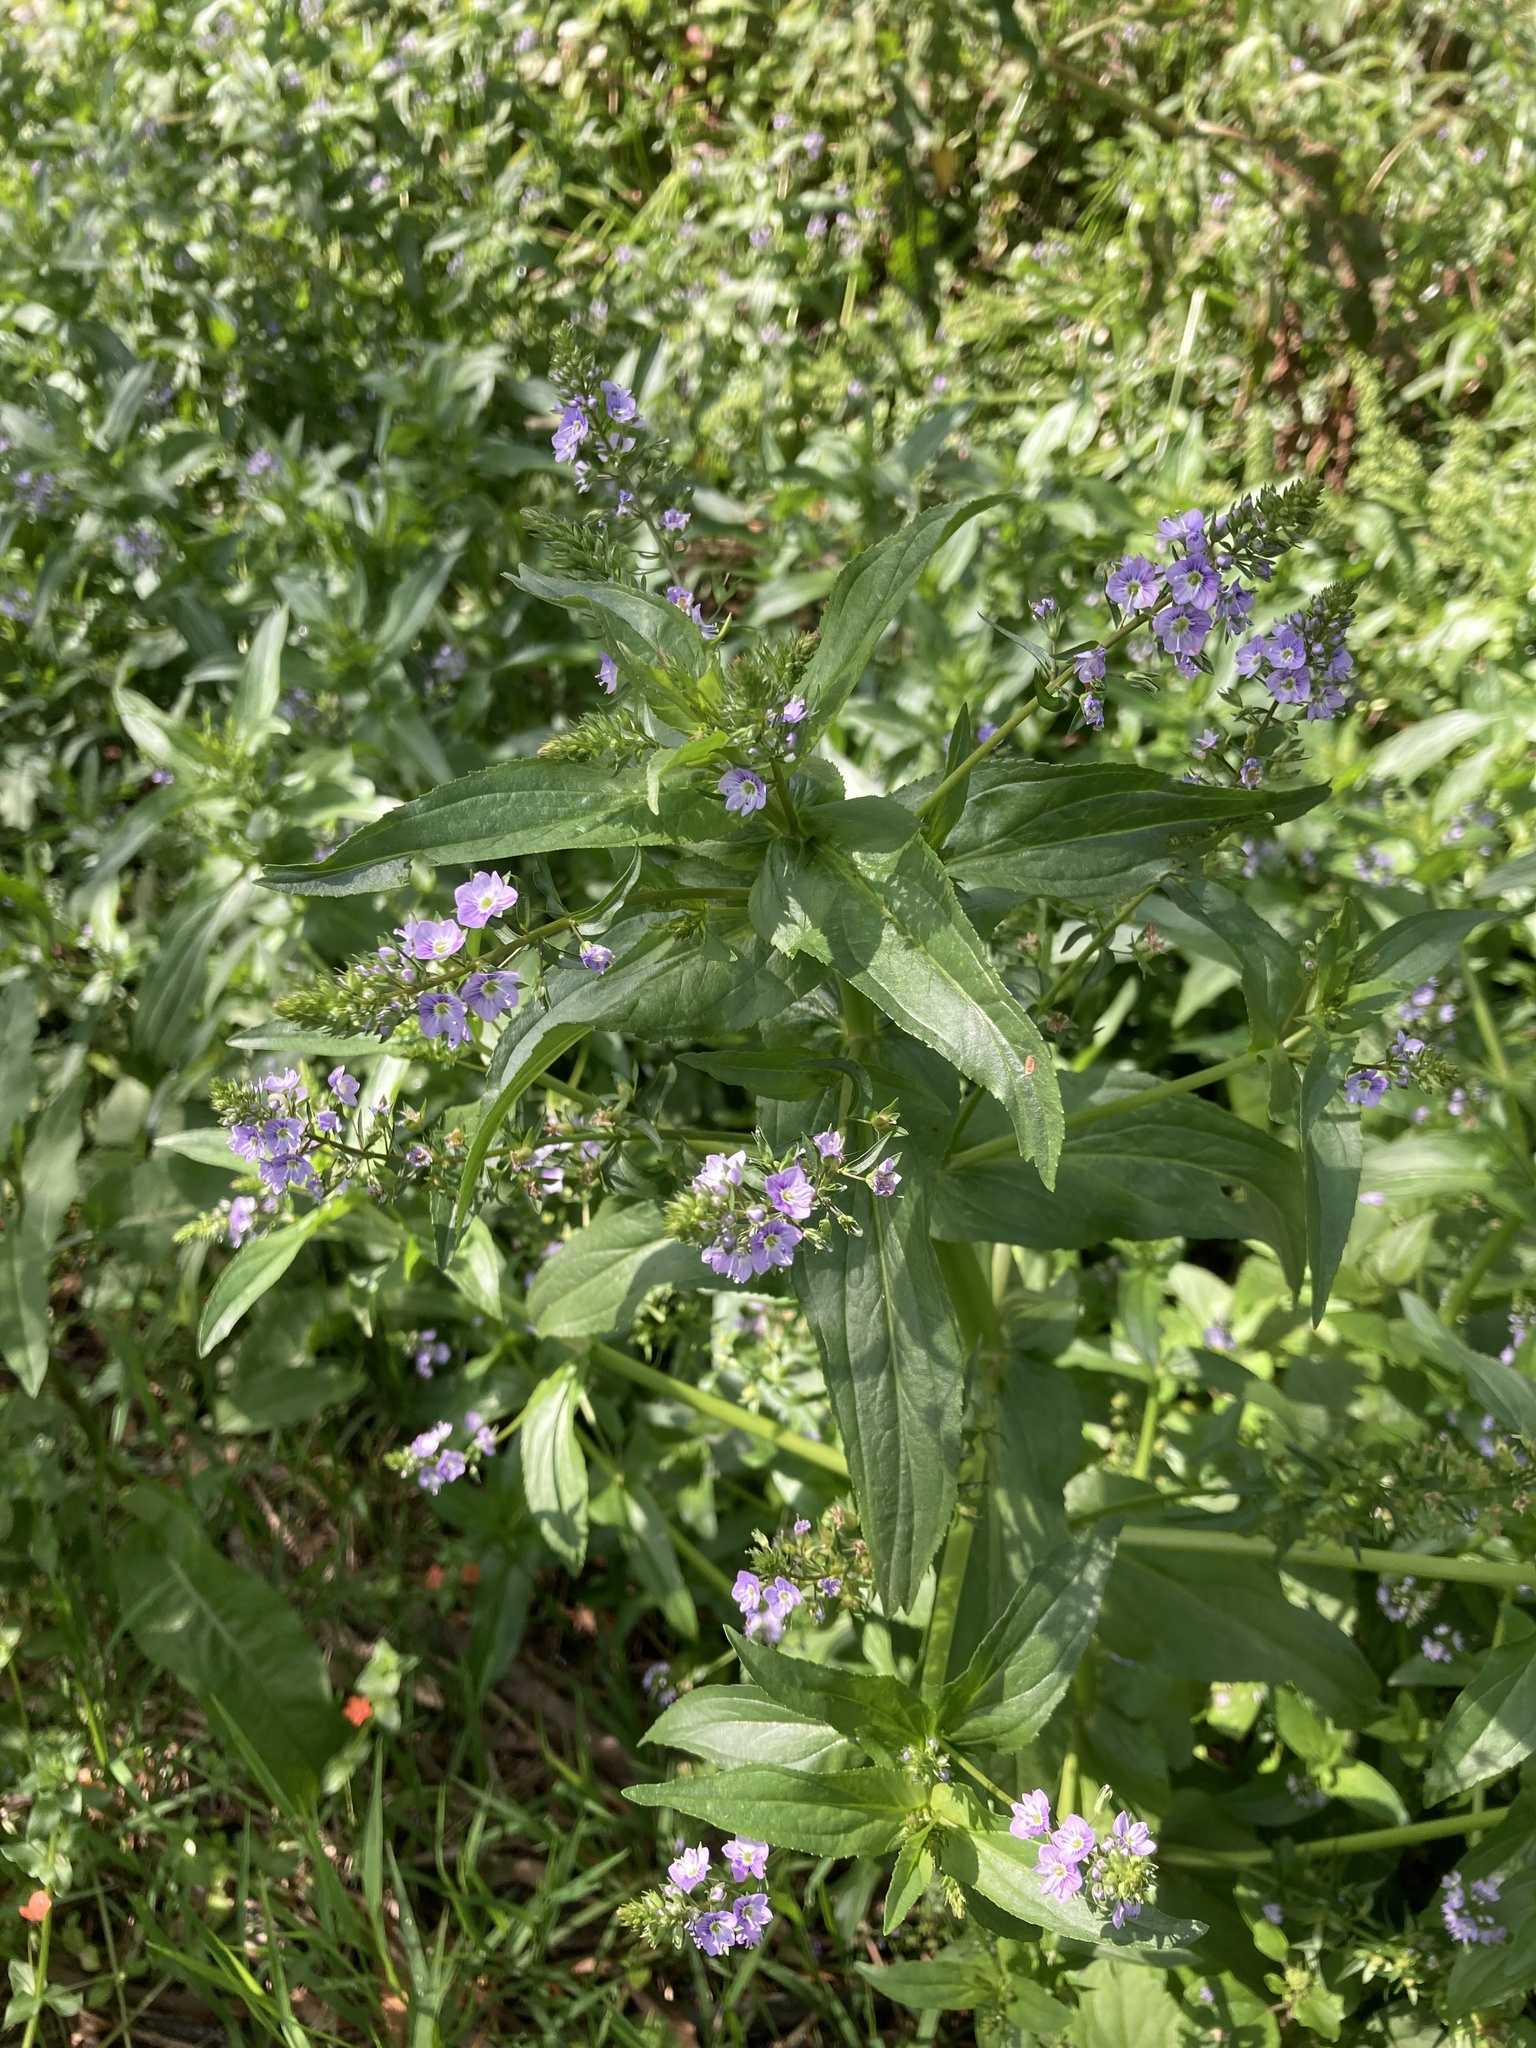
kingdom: Plantae
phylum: Tracheophyta
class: Magnoliopsida
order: Lamiales
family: Plantaginaceae
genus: Veronica
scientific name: Veronica anagallis-aquatica
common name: Water speedwell
